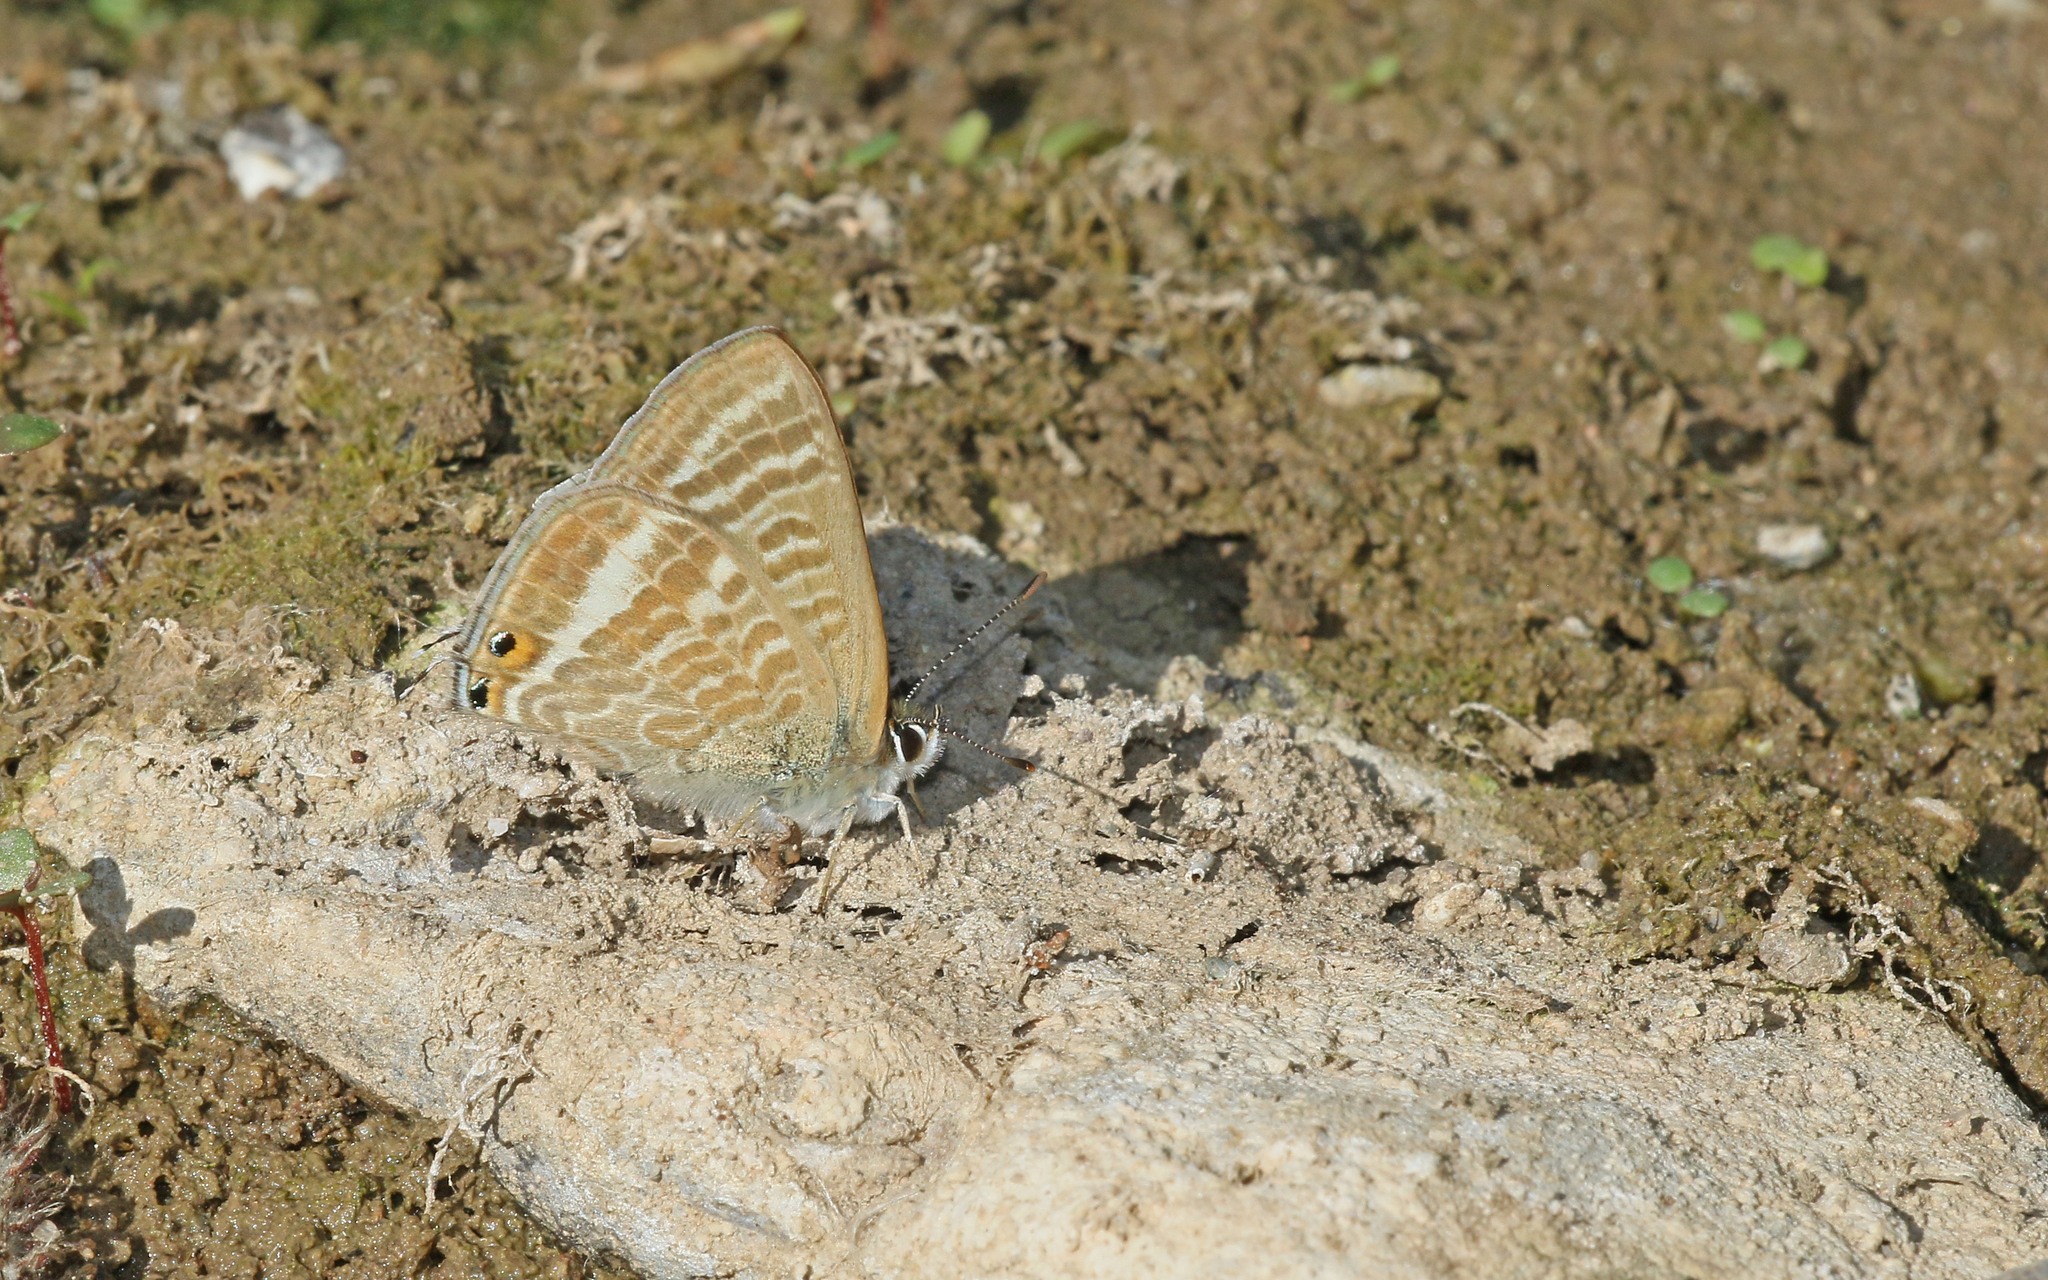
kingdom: Animalia
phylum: Arthropoda
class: Insecta
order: Lepidoptera
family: Lycaenidae
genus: Lampides
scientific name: Lampides boeticus
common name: Long-tailed blue
